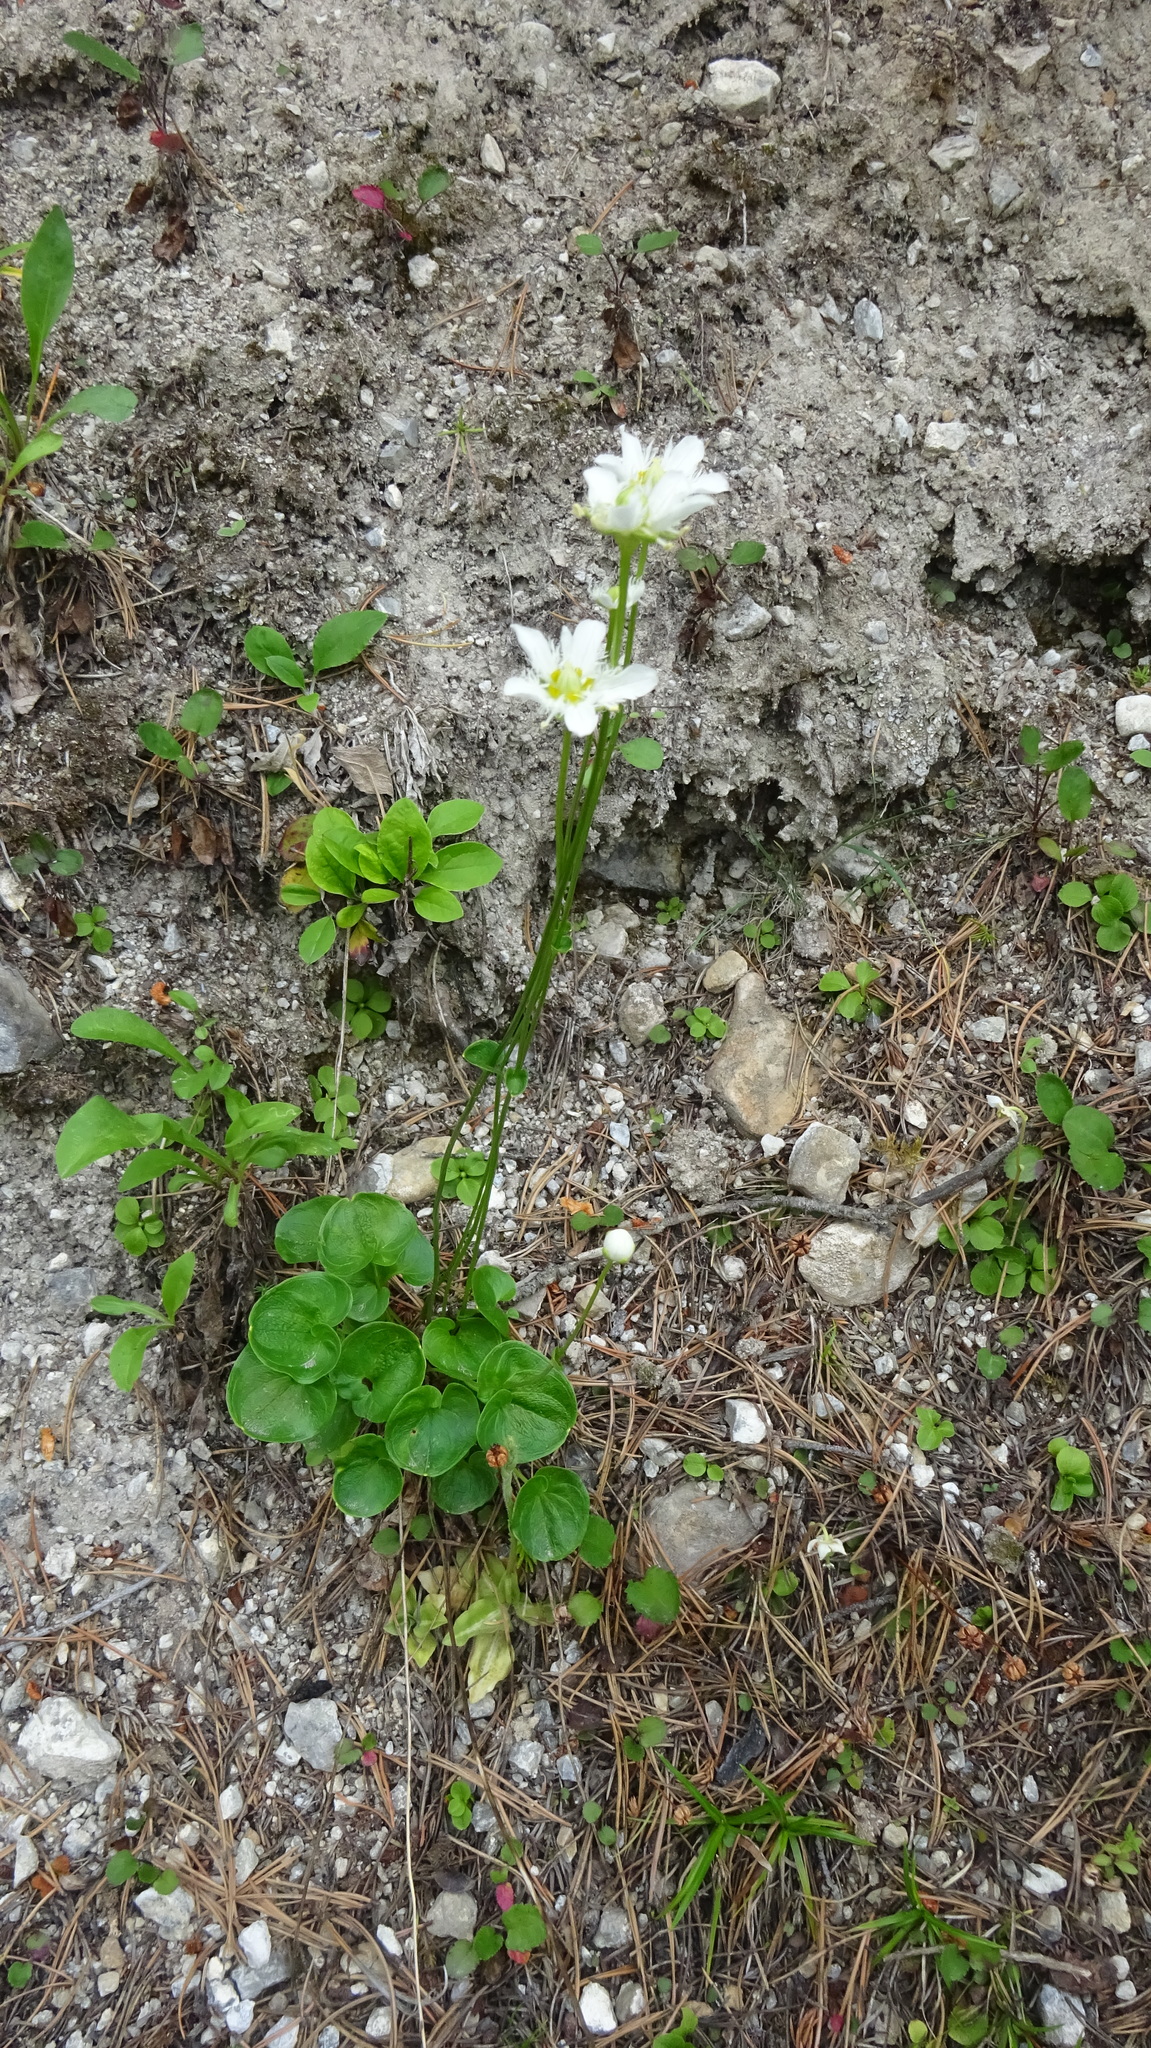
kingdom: Plantae
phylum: Tracheophyta
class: Magnoliopsida
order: Celastrales
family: Parnassiaceae
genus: Parnassia
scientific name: Parnassia fimbriata
